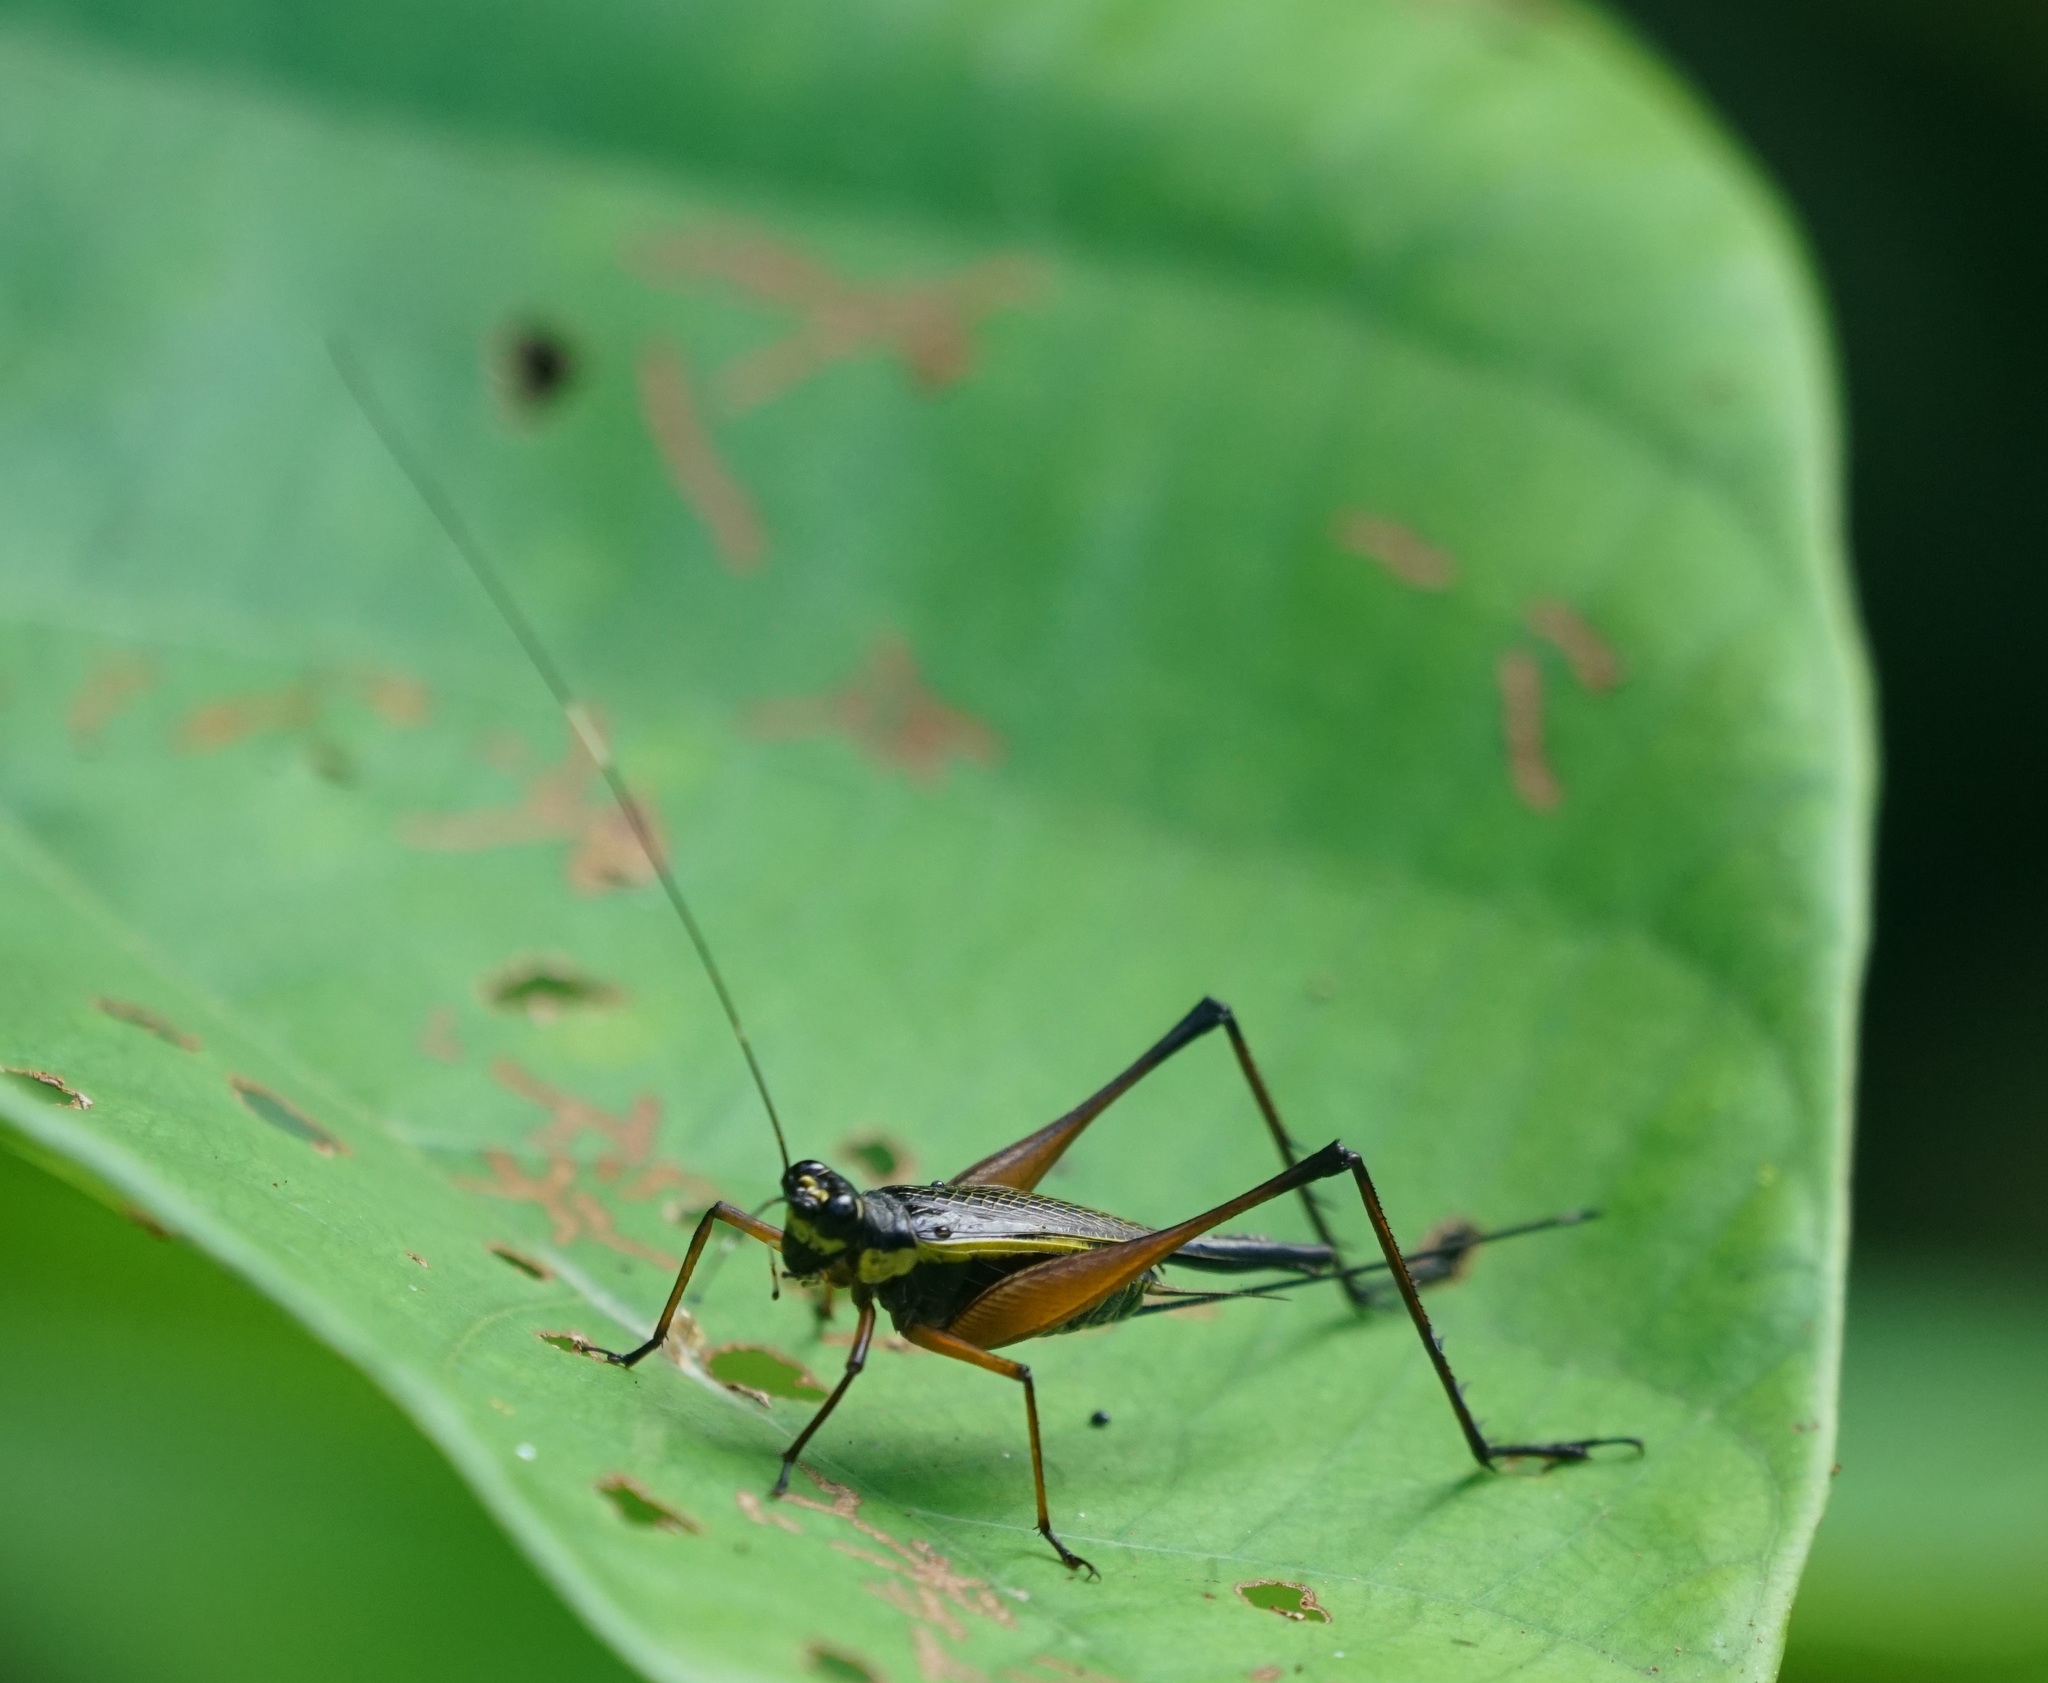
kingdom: Animalia
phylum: Arthropoda
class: Insecta
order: Orthoptera
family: Gryllidae
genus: Nisitrus
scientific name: Nisitrus danum
